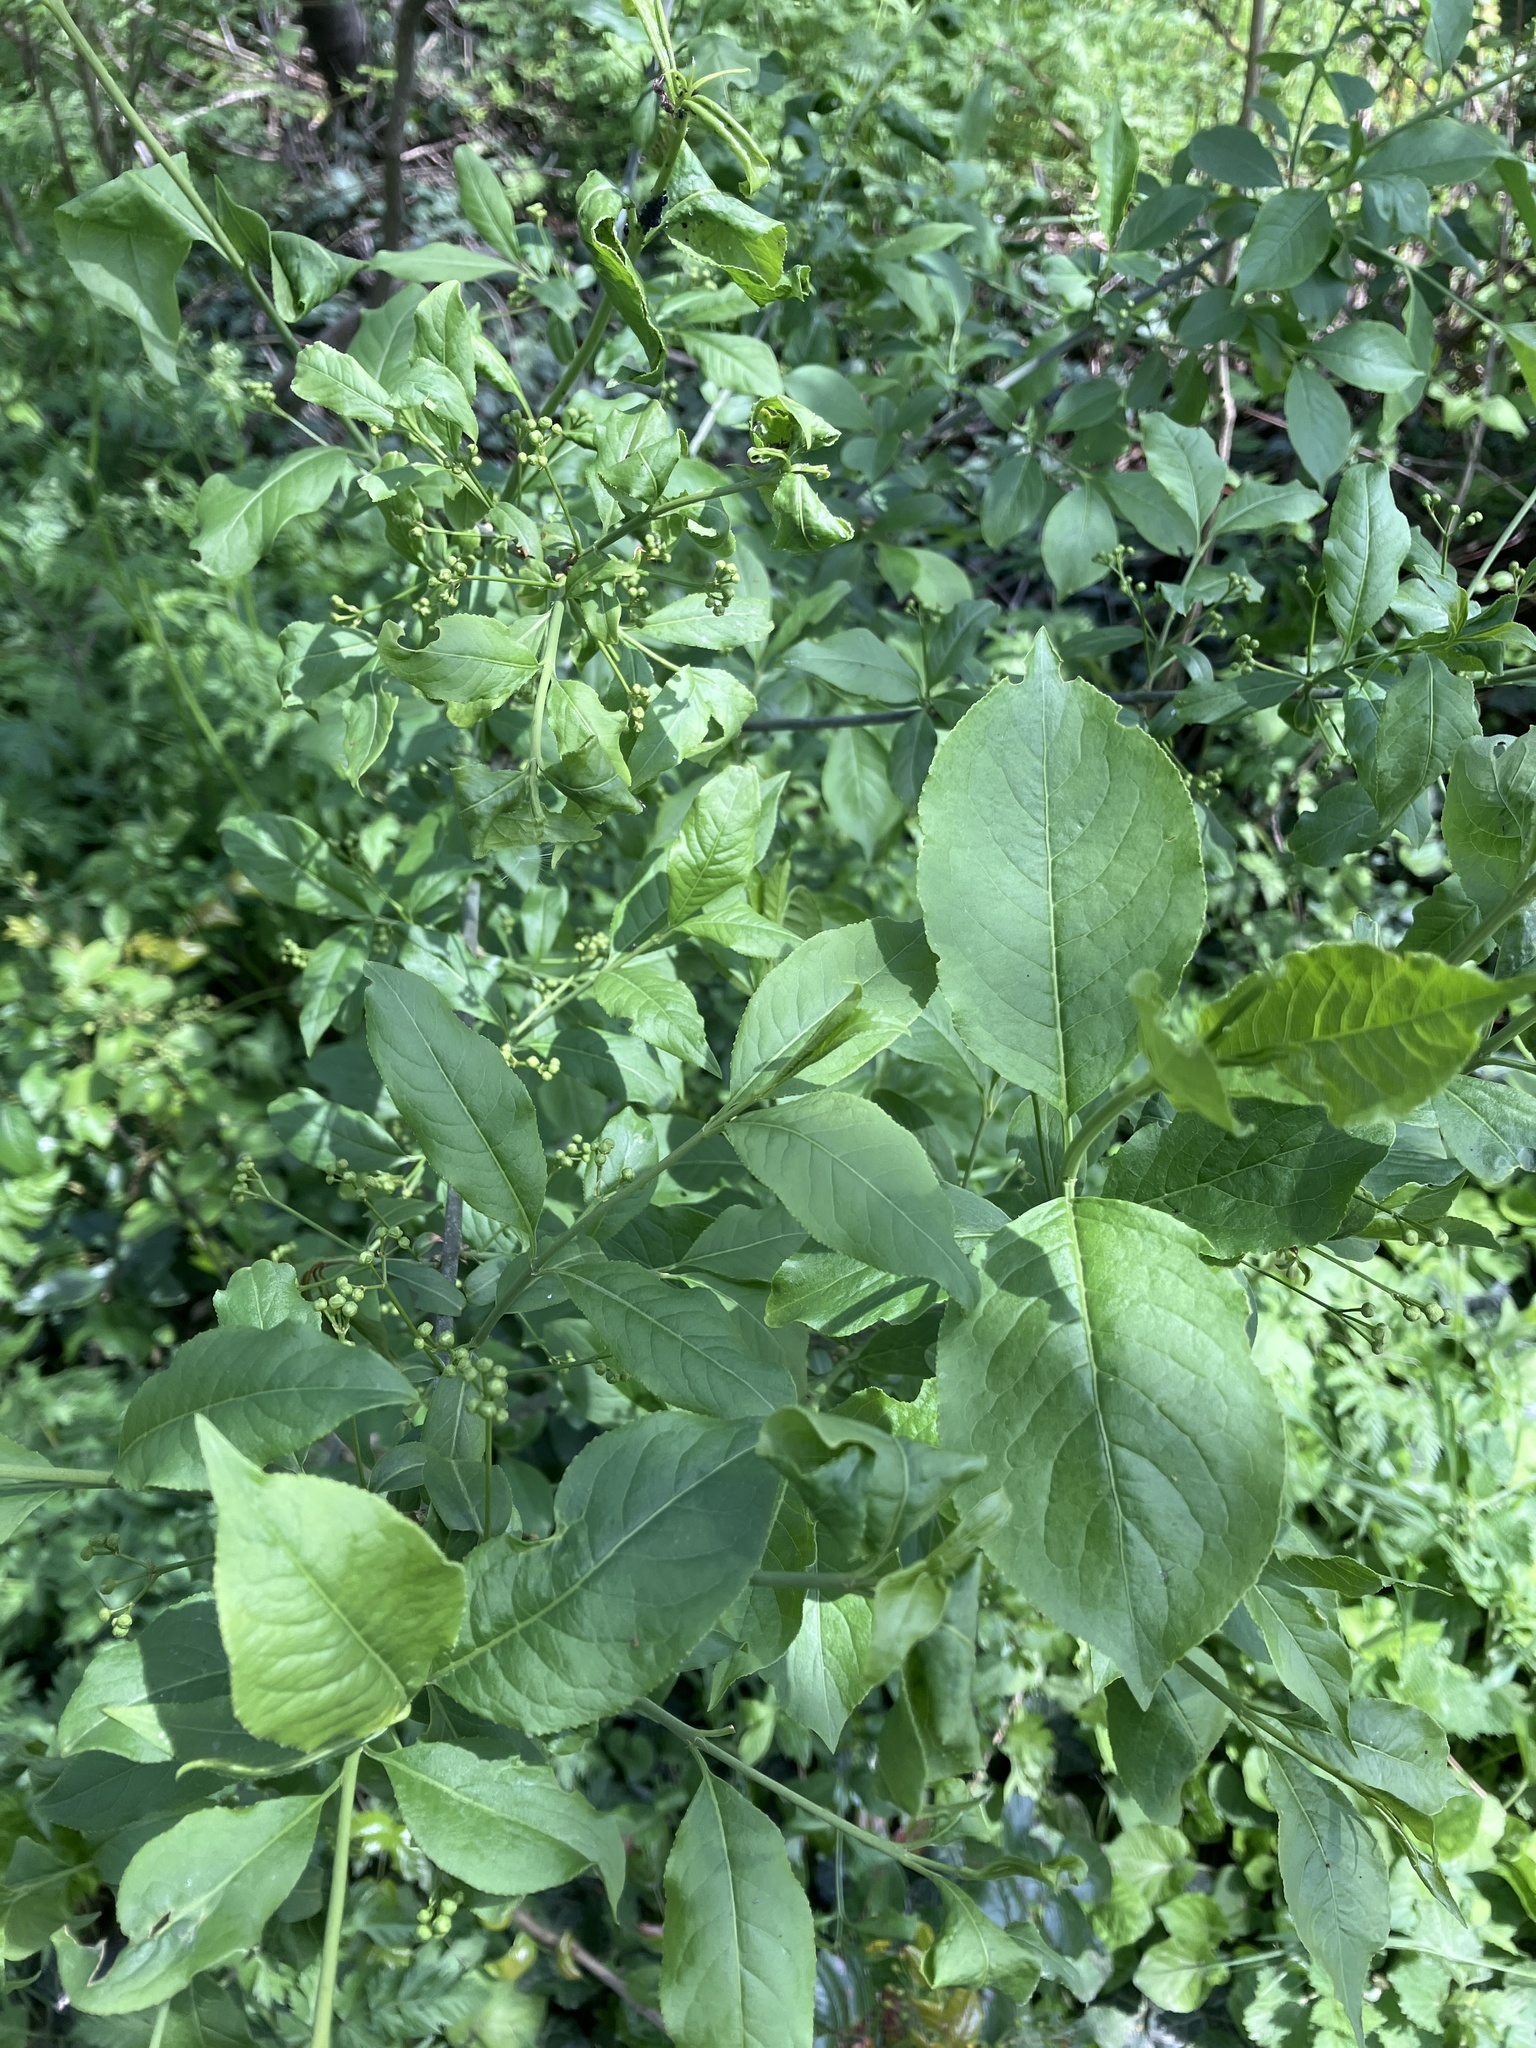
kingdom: Plantae
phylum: Tracheophyta
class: Magnoliopsida
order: Celastrales
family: Celastraceae
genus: Euonymus
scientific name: Euonymus europaeus
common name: Spindle
